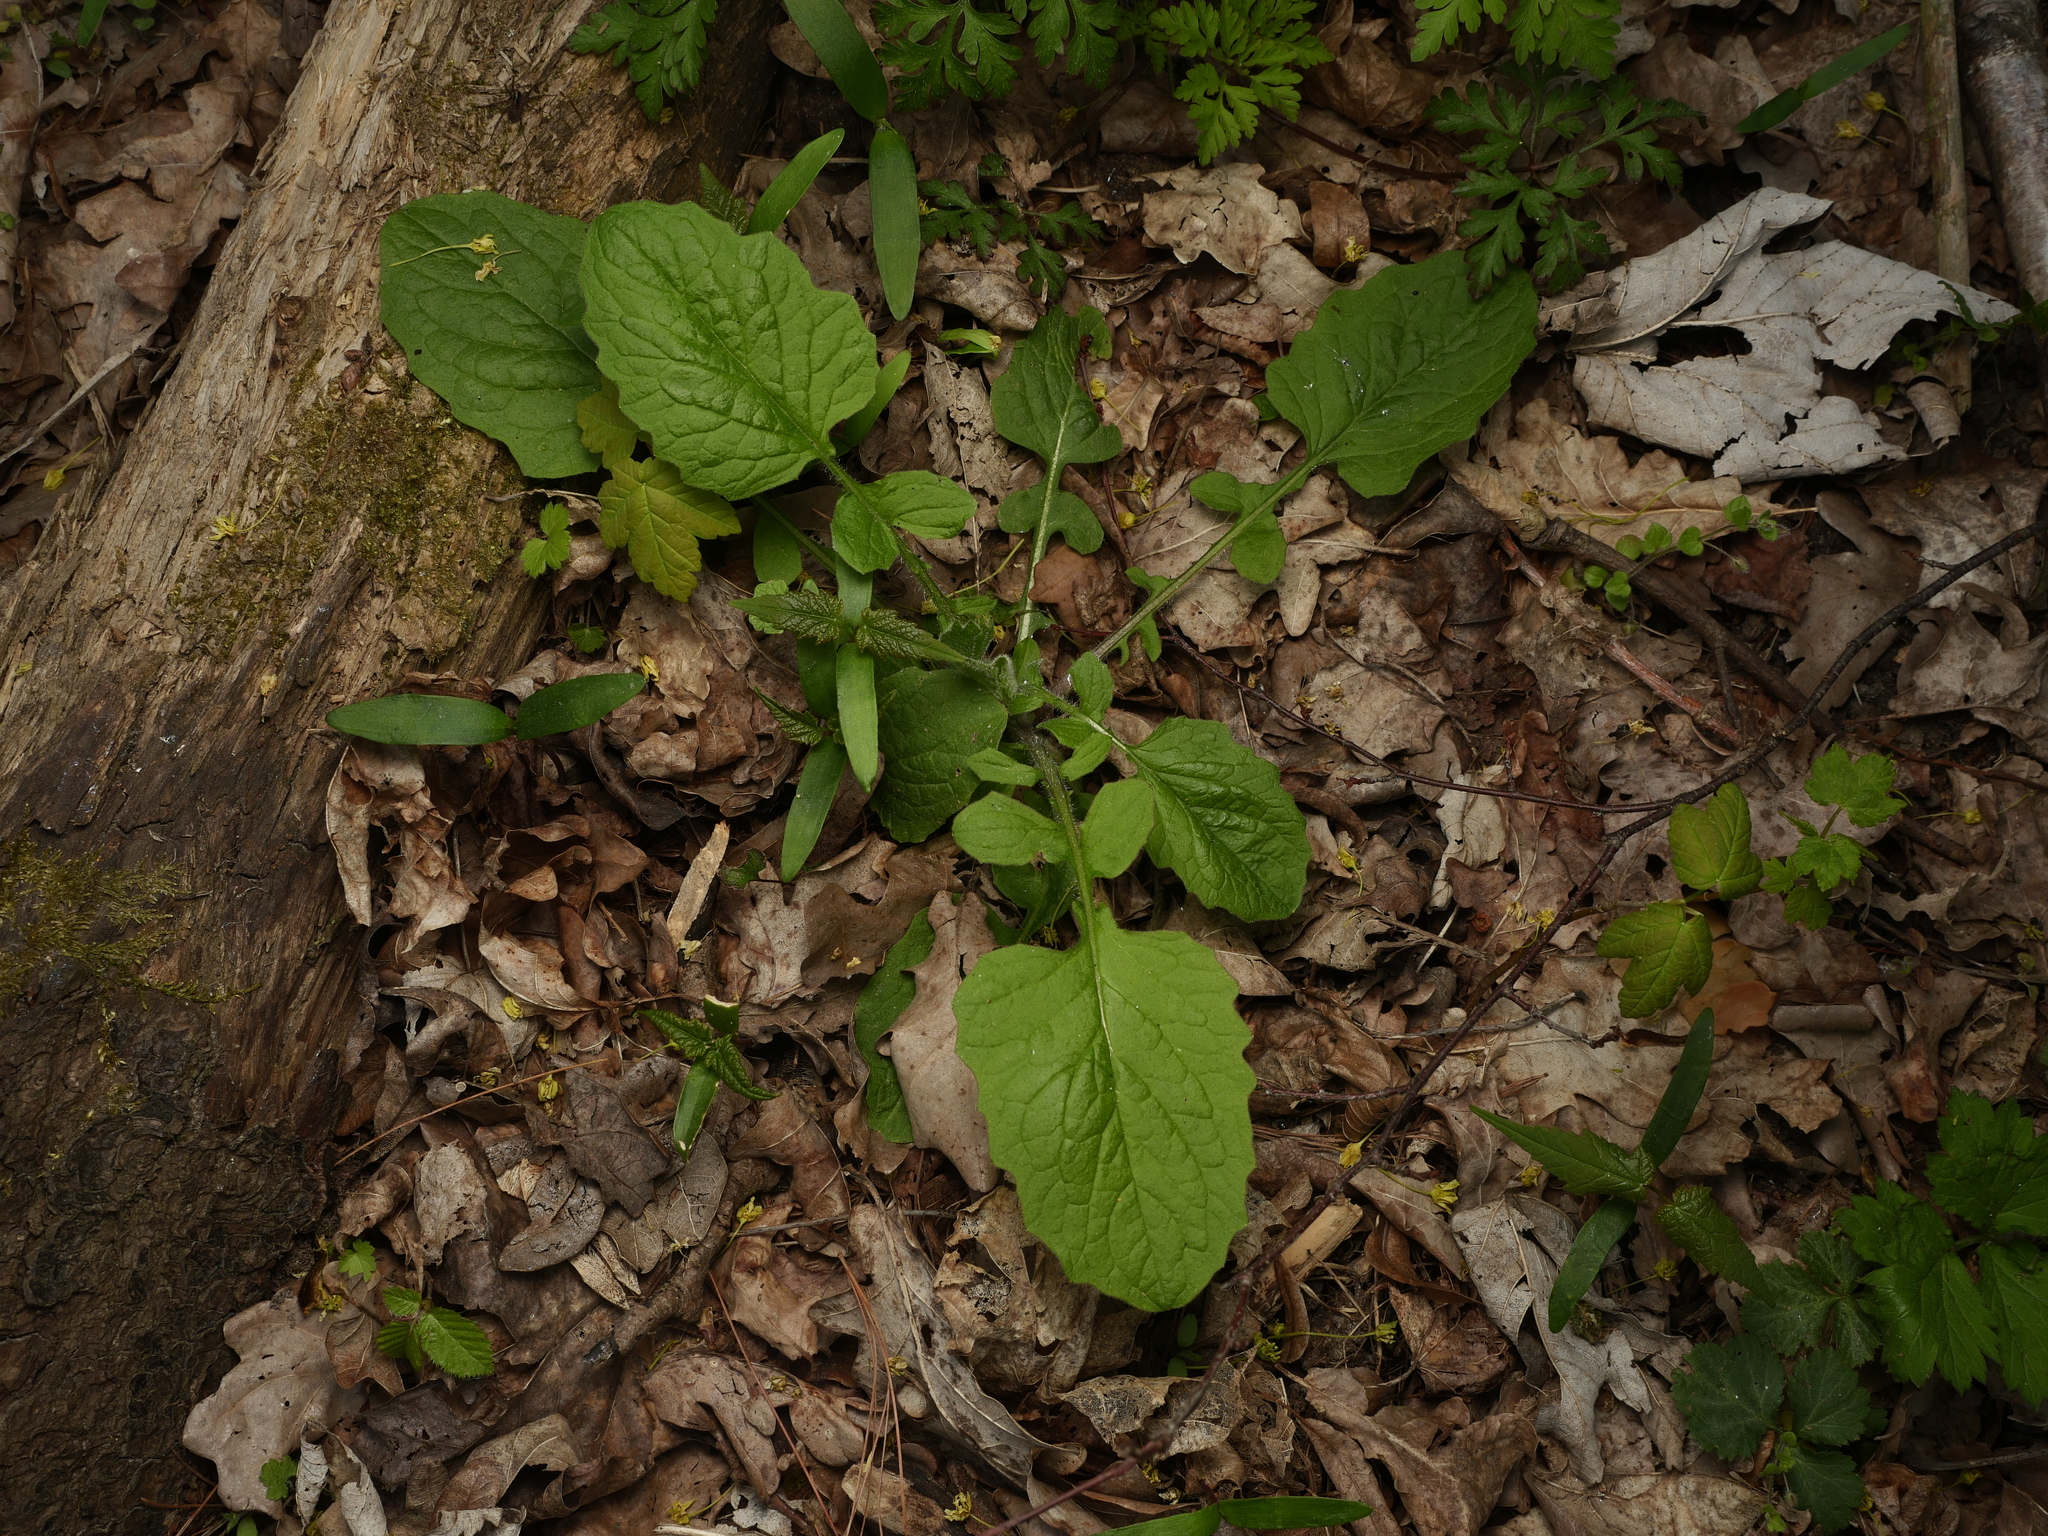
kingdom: Plantae
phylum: Tracheophyta
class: Magnoliopsida
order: Asterales
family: Asteraceae
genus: Lapsana
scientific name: Lapsana communis
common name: Nipplewort
